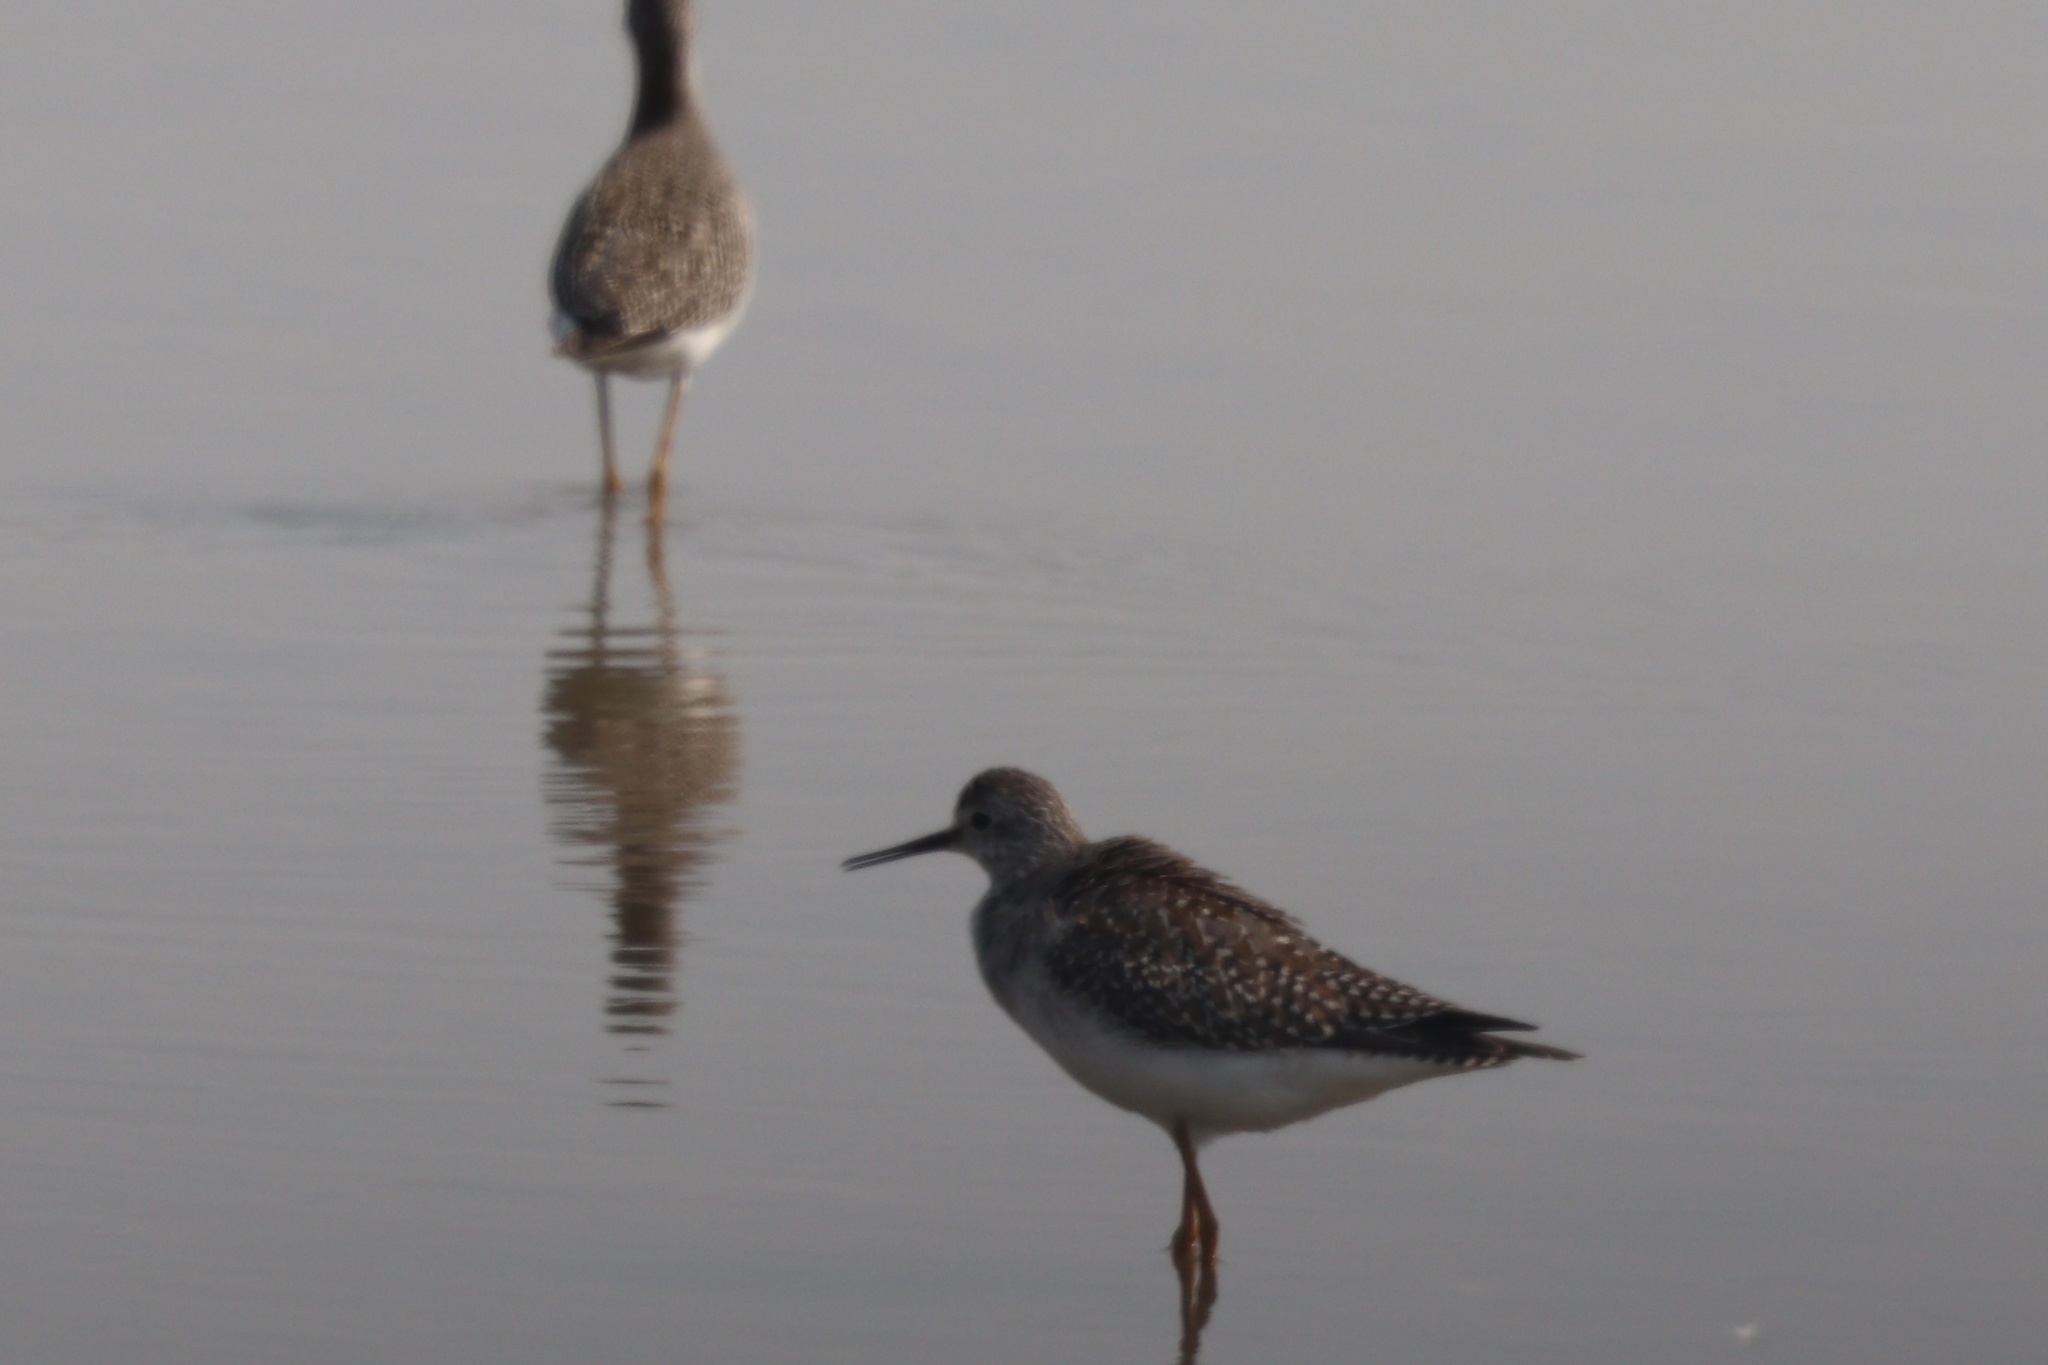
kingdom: Animalia
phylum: Chordata
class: Aves
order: Charadriiformes
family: Scolopacidae
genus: Tringa
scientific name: Tringa flavipes
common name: Lesser yellowlegs
